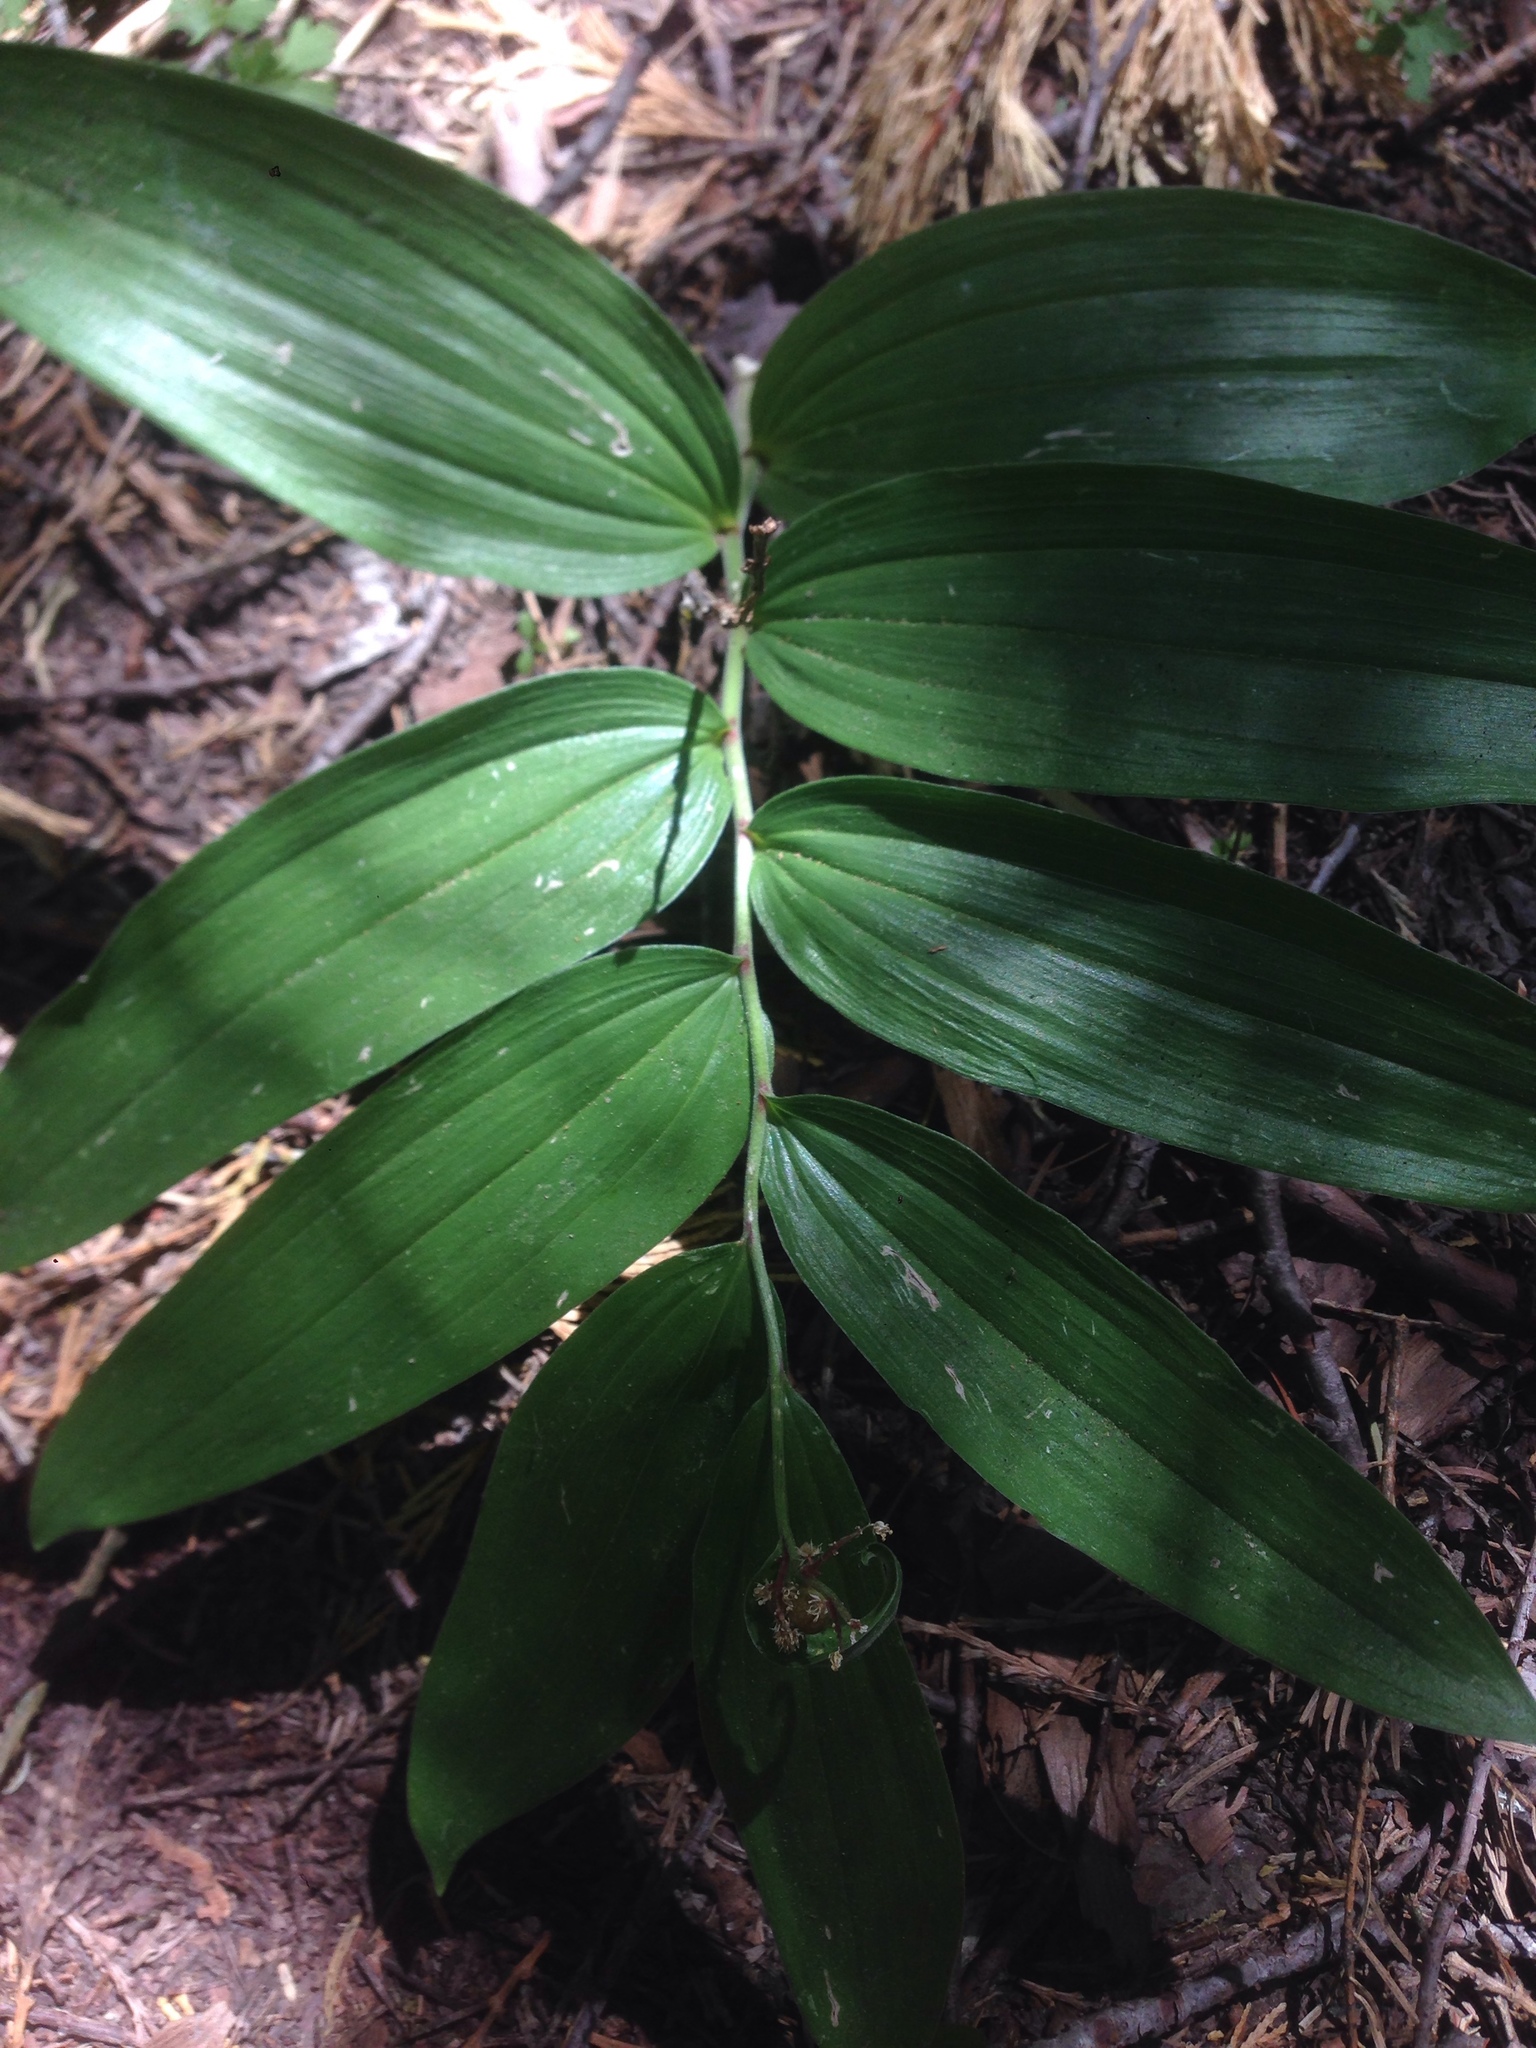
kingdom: Plantae
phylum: Tracheophyta
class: Liliopsida
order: Asparagales
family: Asparagaceae
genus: Maianthemum
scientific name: Maianthemum racemosum
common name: False spikenard
